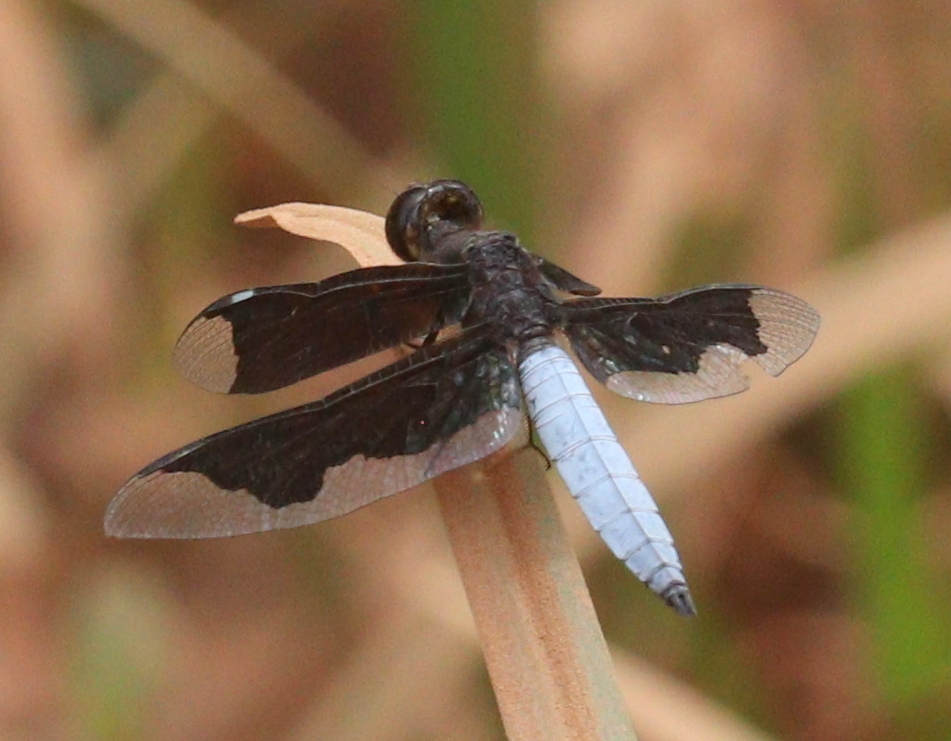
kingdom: Animalia
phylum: Arthropoda
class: Insecta
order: Odonata
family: Libellulidae
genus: Palpopleura
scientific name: Palpopleura lucia
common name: Lucia widow
